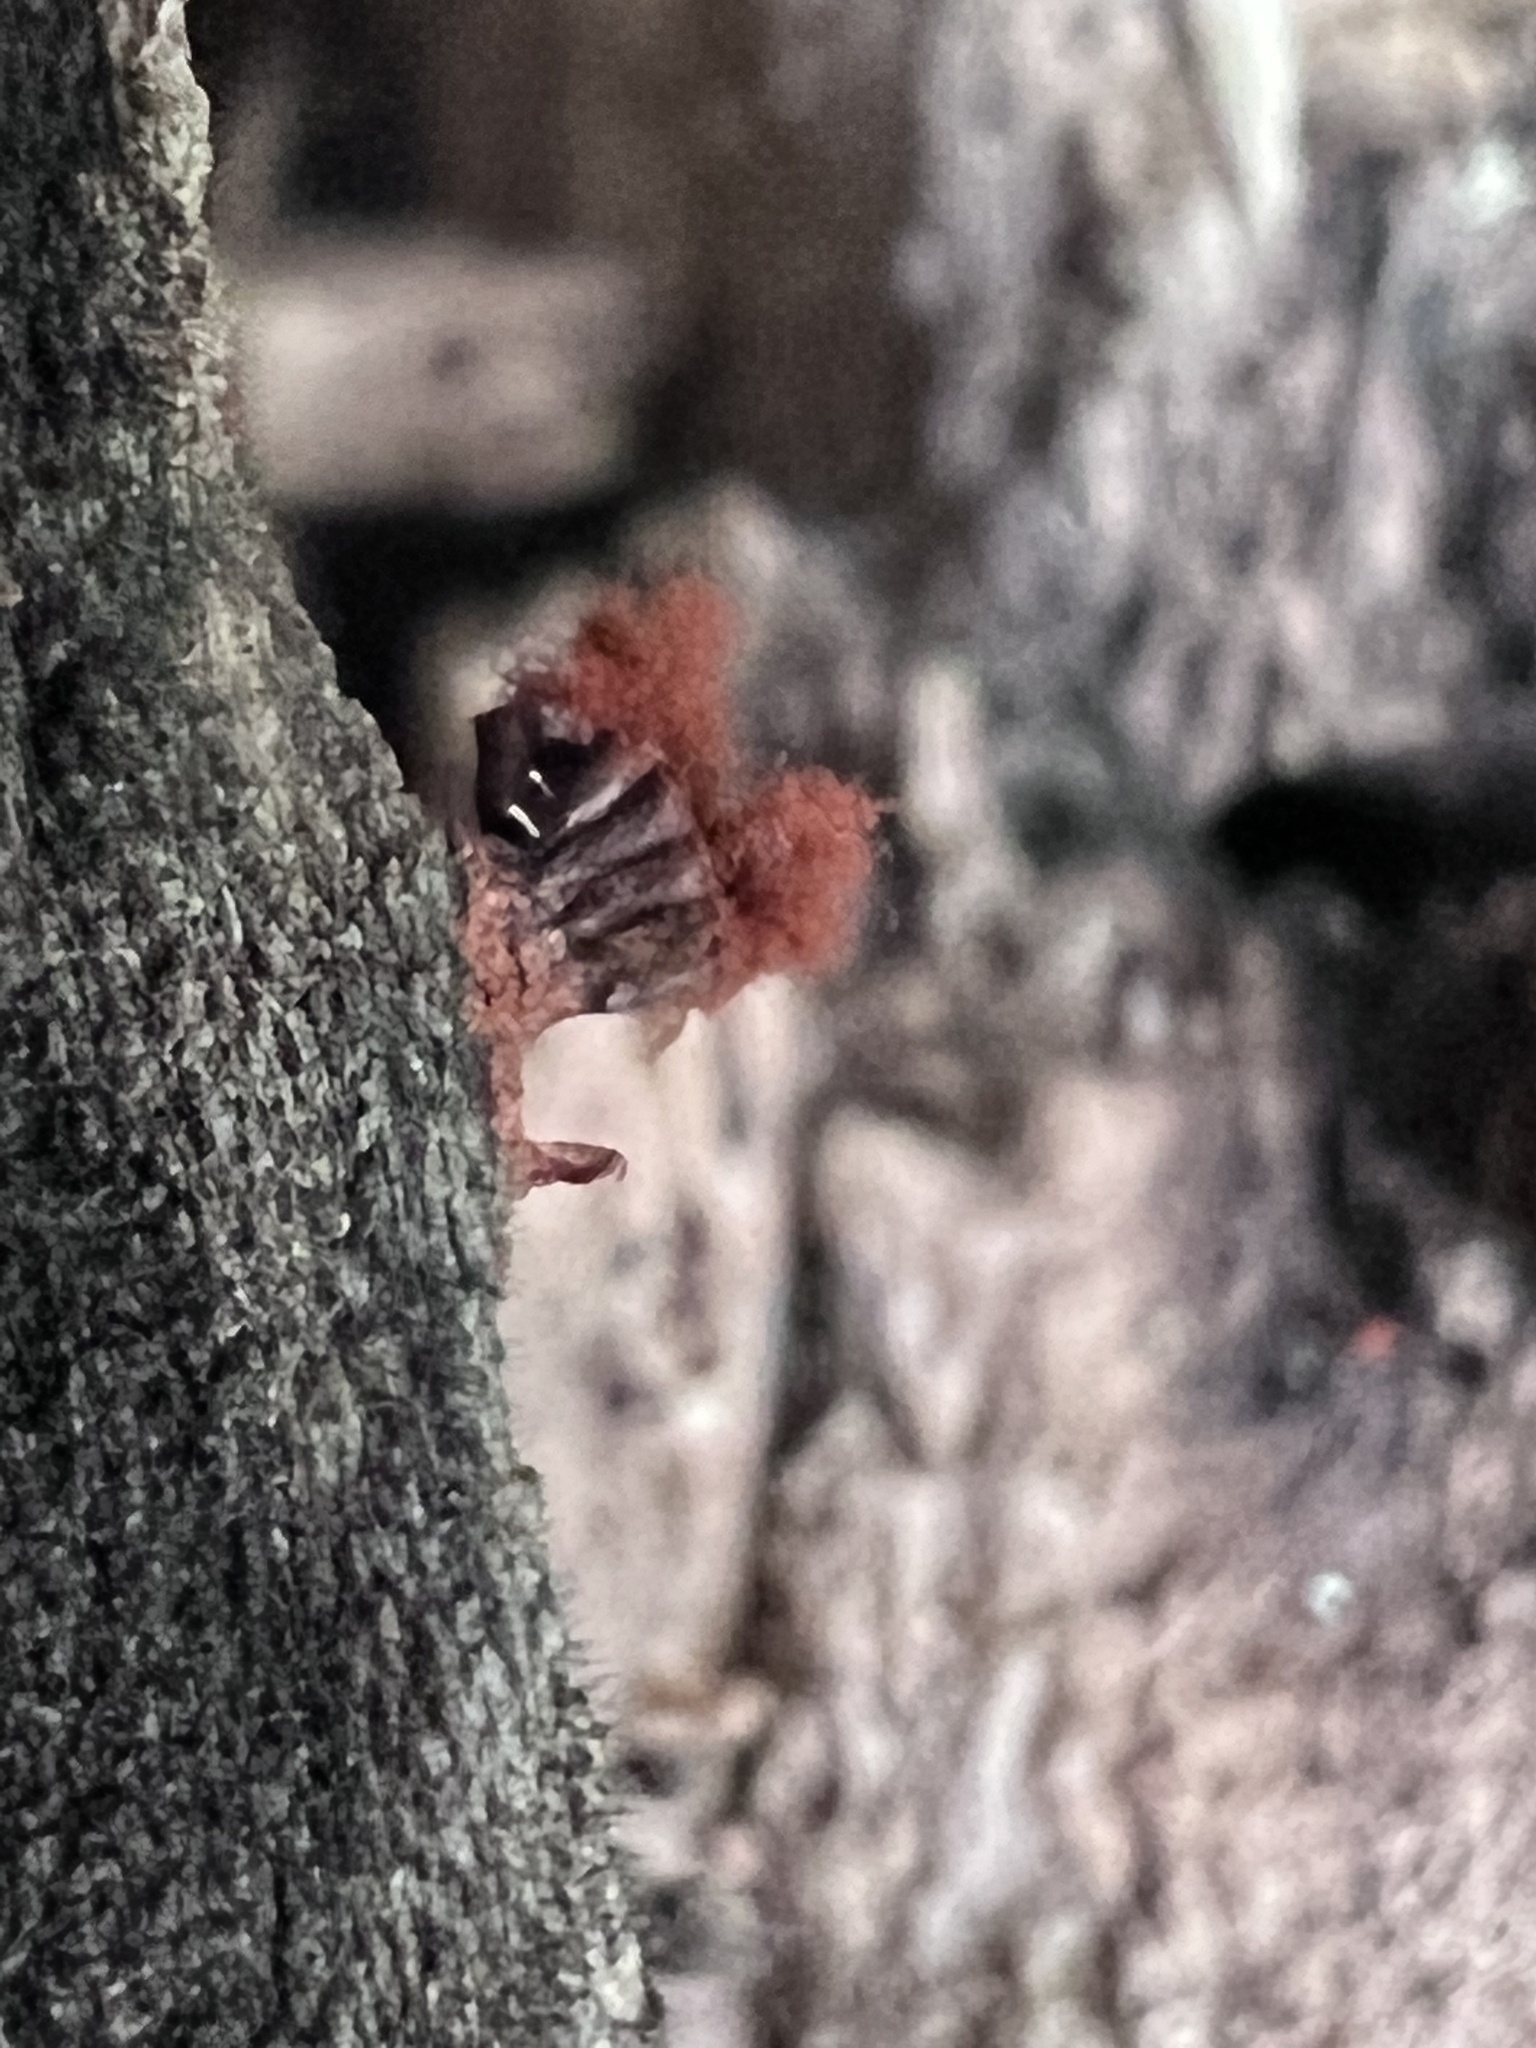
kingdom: Protozoa
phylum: Mycetozoa
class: Myxomycetes
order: Trichiales
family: Trichiaceae
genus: Metatrichia
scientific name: Metatrichia vesparia
